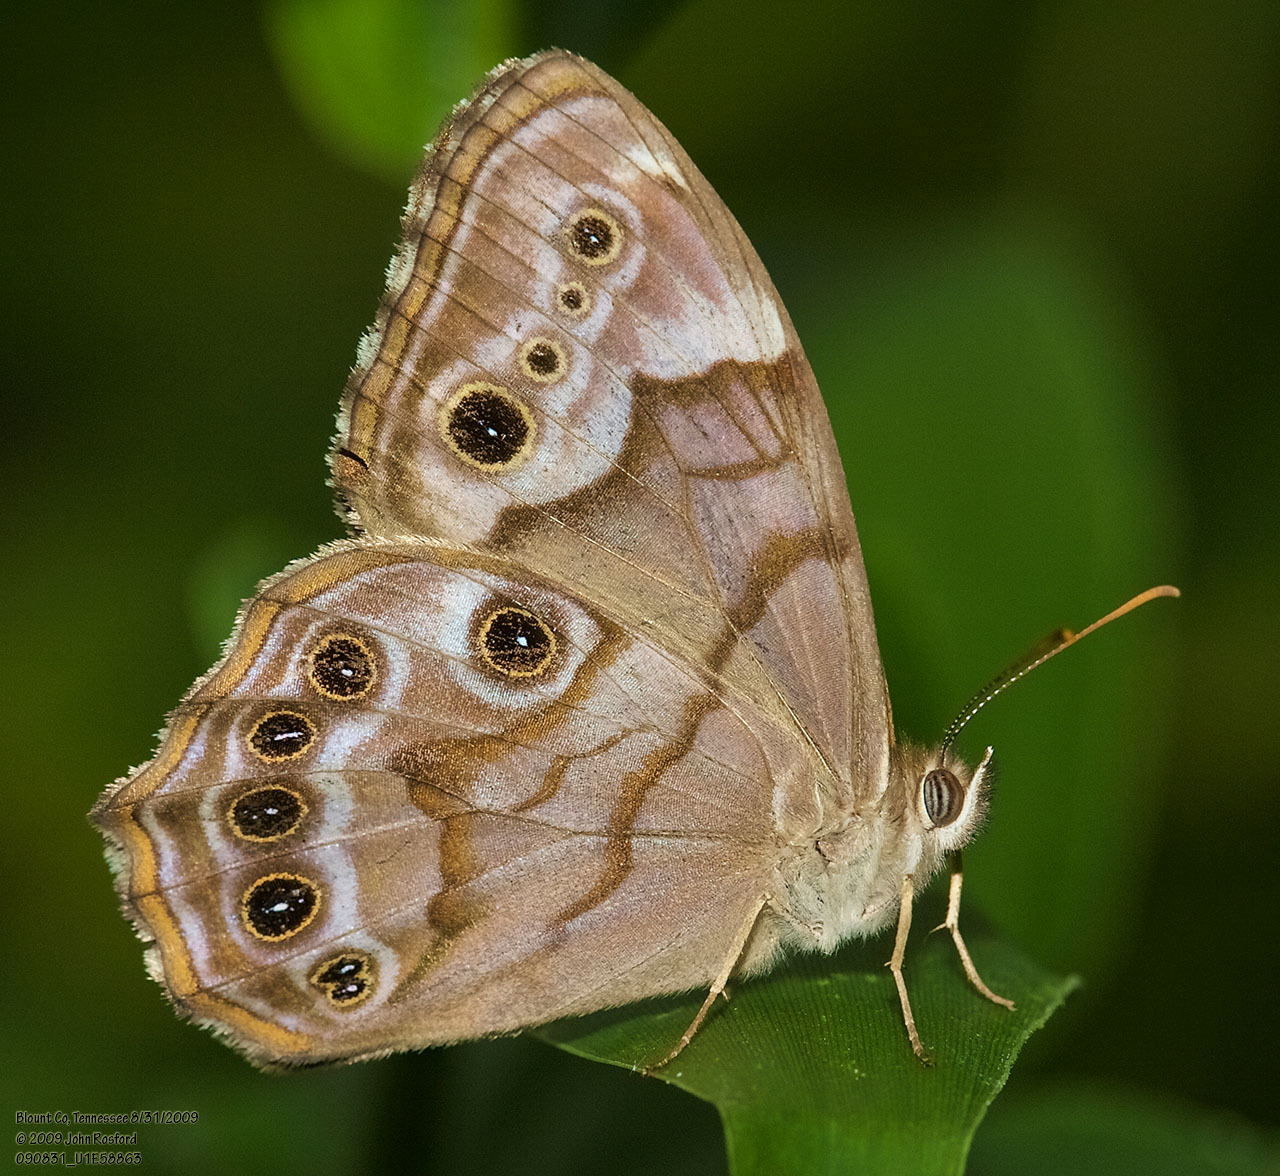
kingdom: Animalia
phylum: Arthropoda
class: Insecta
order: Lepidoptera
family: Nymphalidae
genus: Enodia
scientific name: Enodia portlandia
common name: Southern pearly-eye
